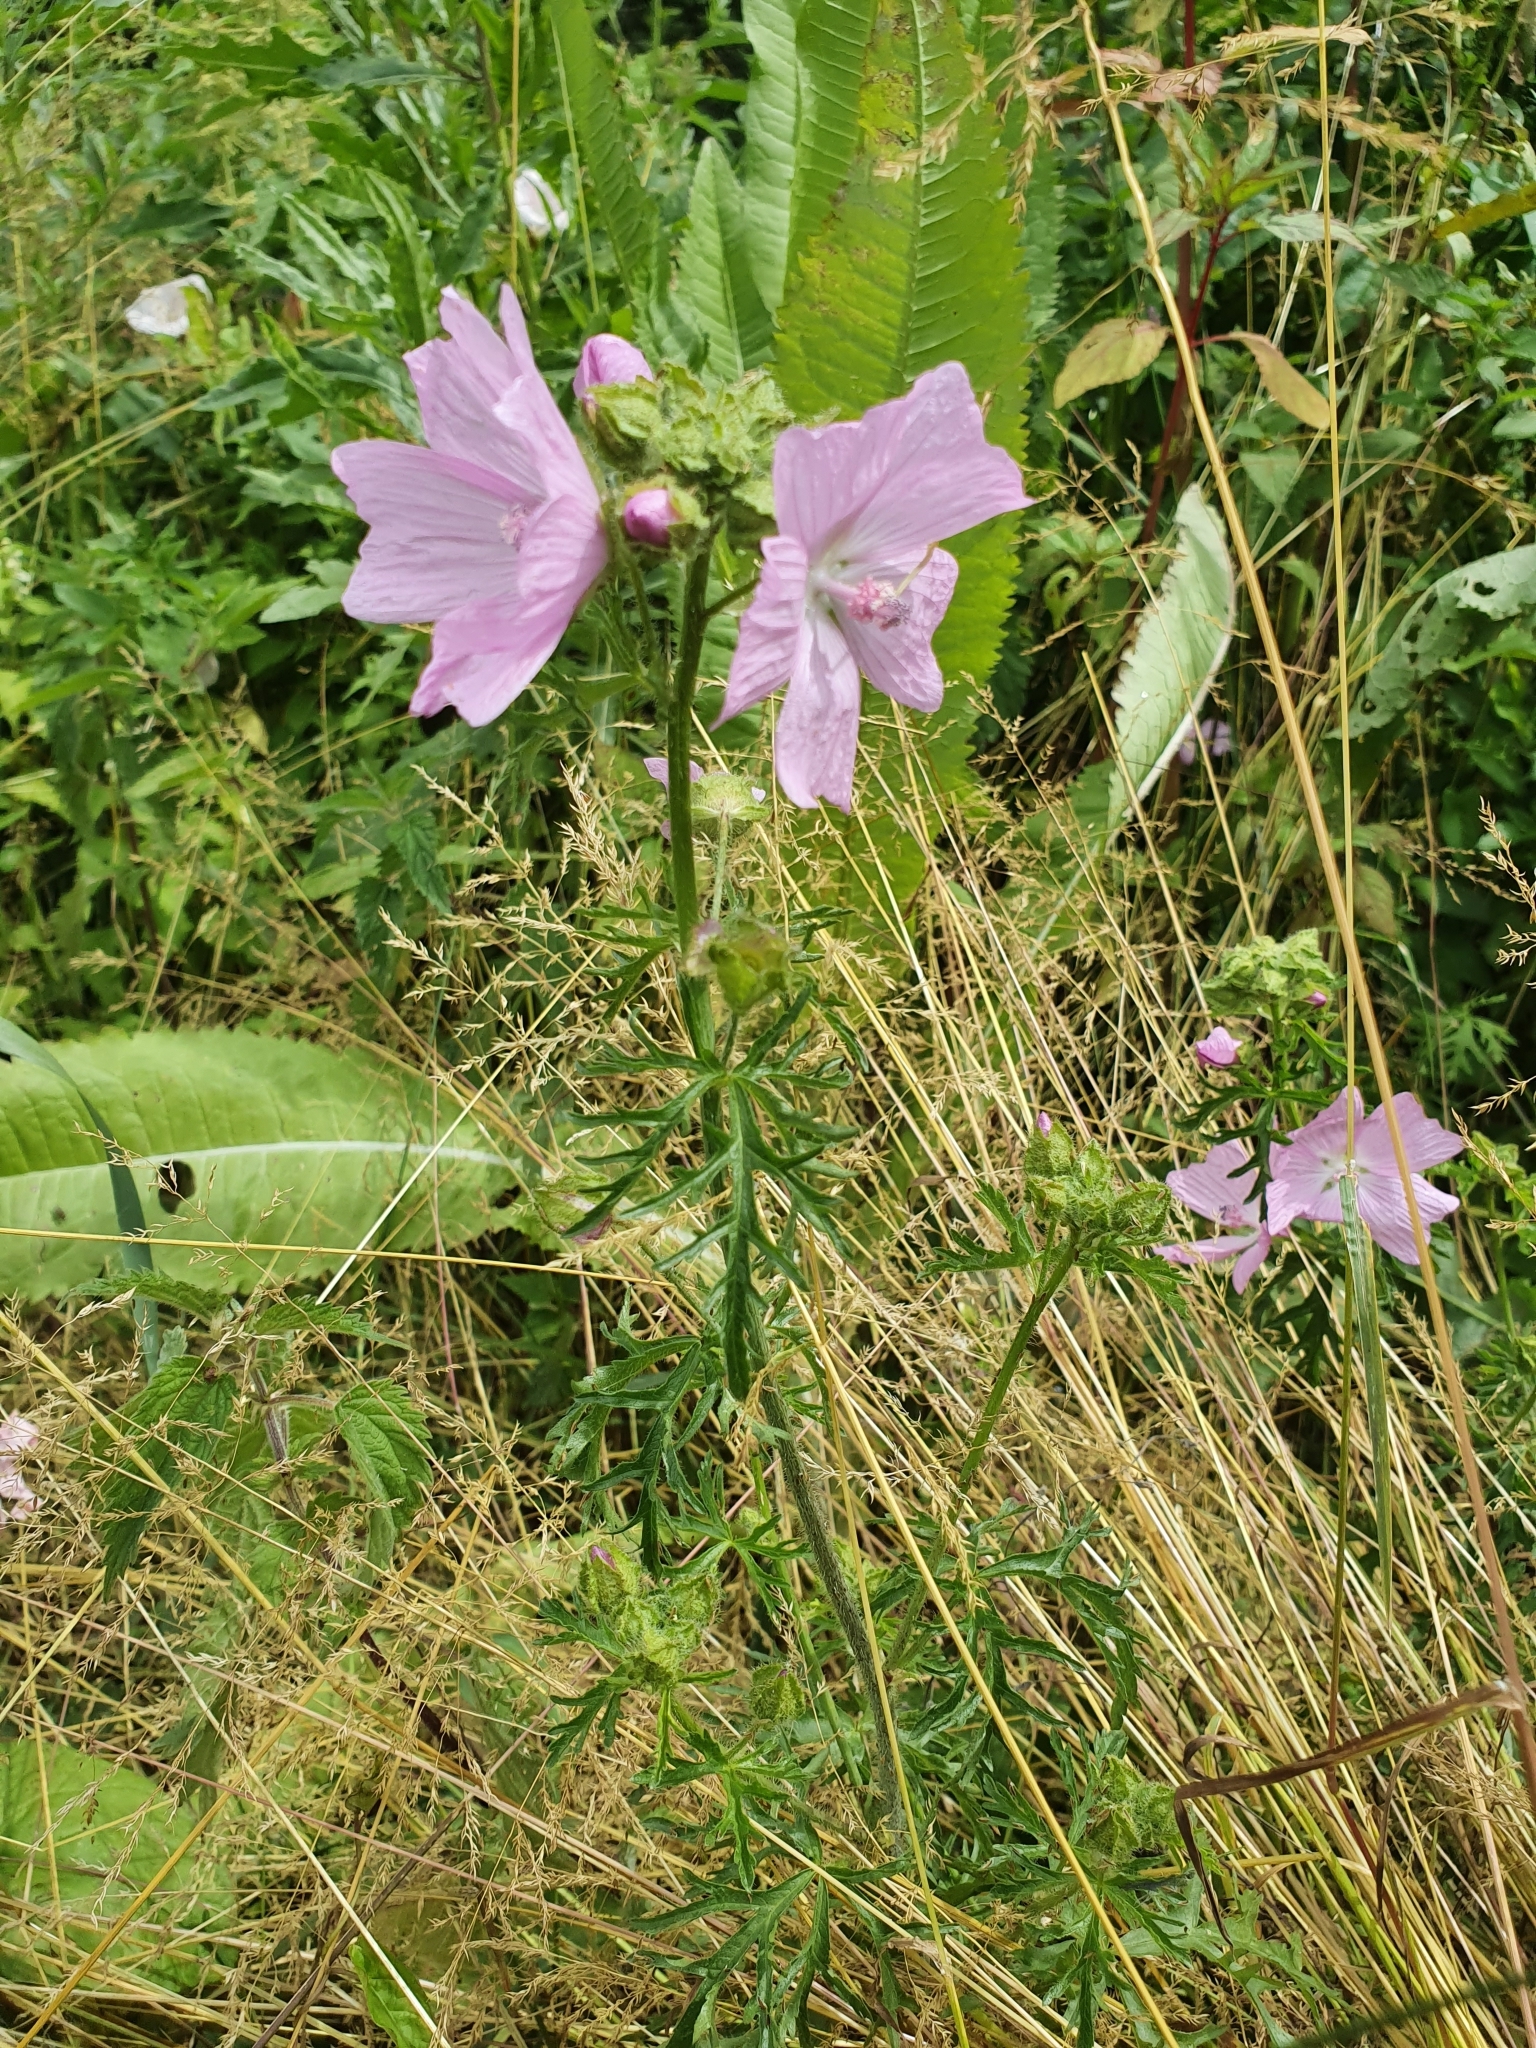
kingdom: Plantae
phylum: Tracheophyta
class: Magnoliopsida
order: Malvales
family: Malvaceae
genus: Malva
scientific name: Malva moschata
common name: Musk mallow
